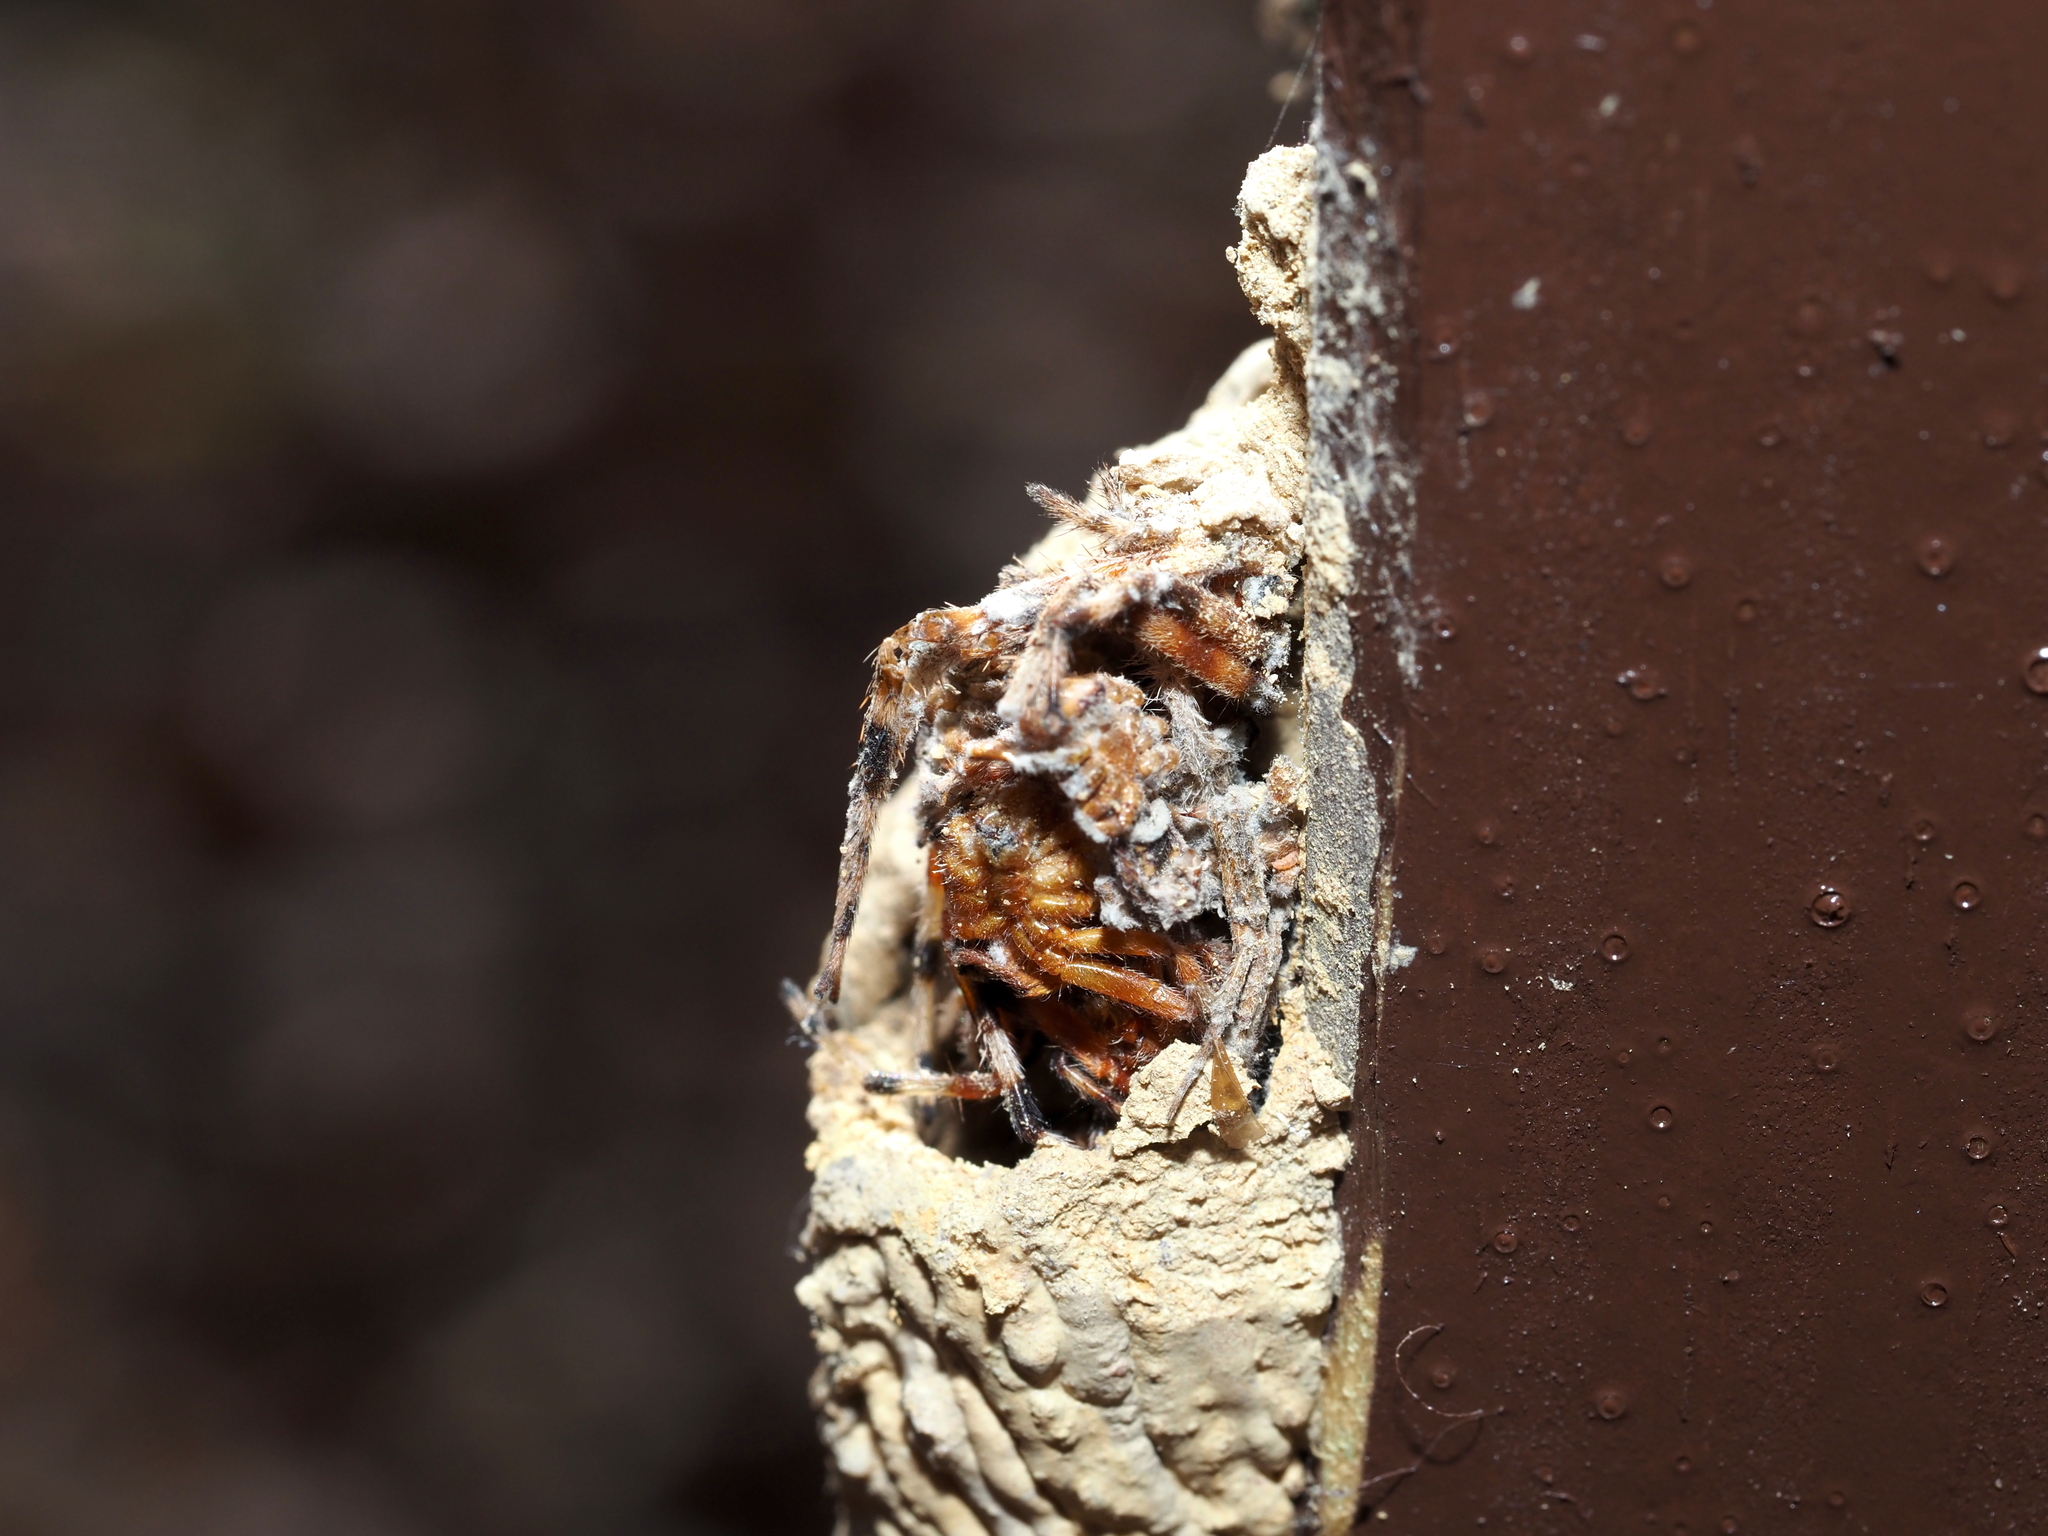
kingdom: Animalia
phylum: Arthropoda
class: Insecta
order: Hymenoptera
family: Crabronidae
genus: Trypoxylon
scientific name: Trypoxylon politum
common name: Organ-pipe mud-dauber wasp
